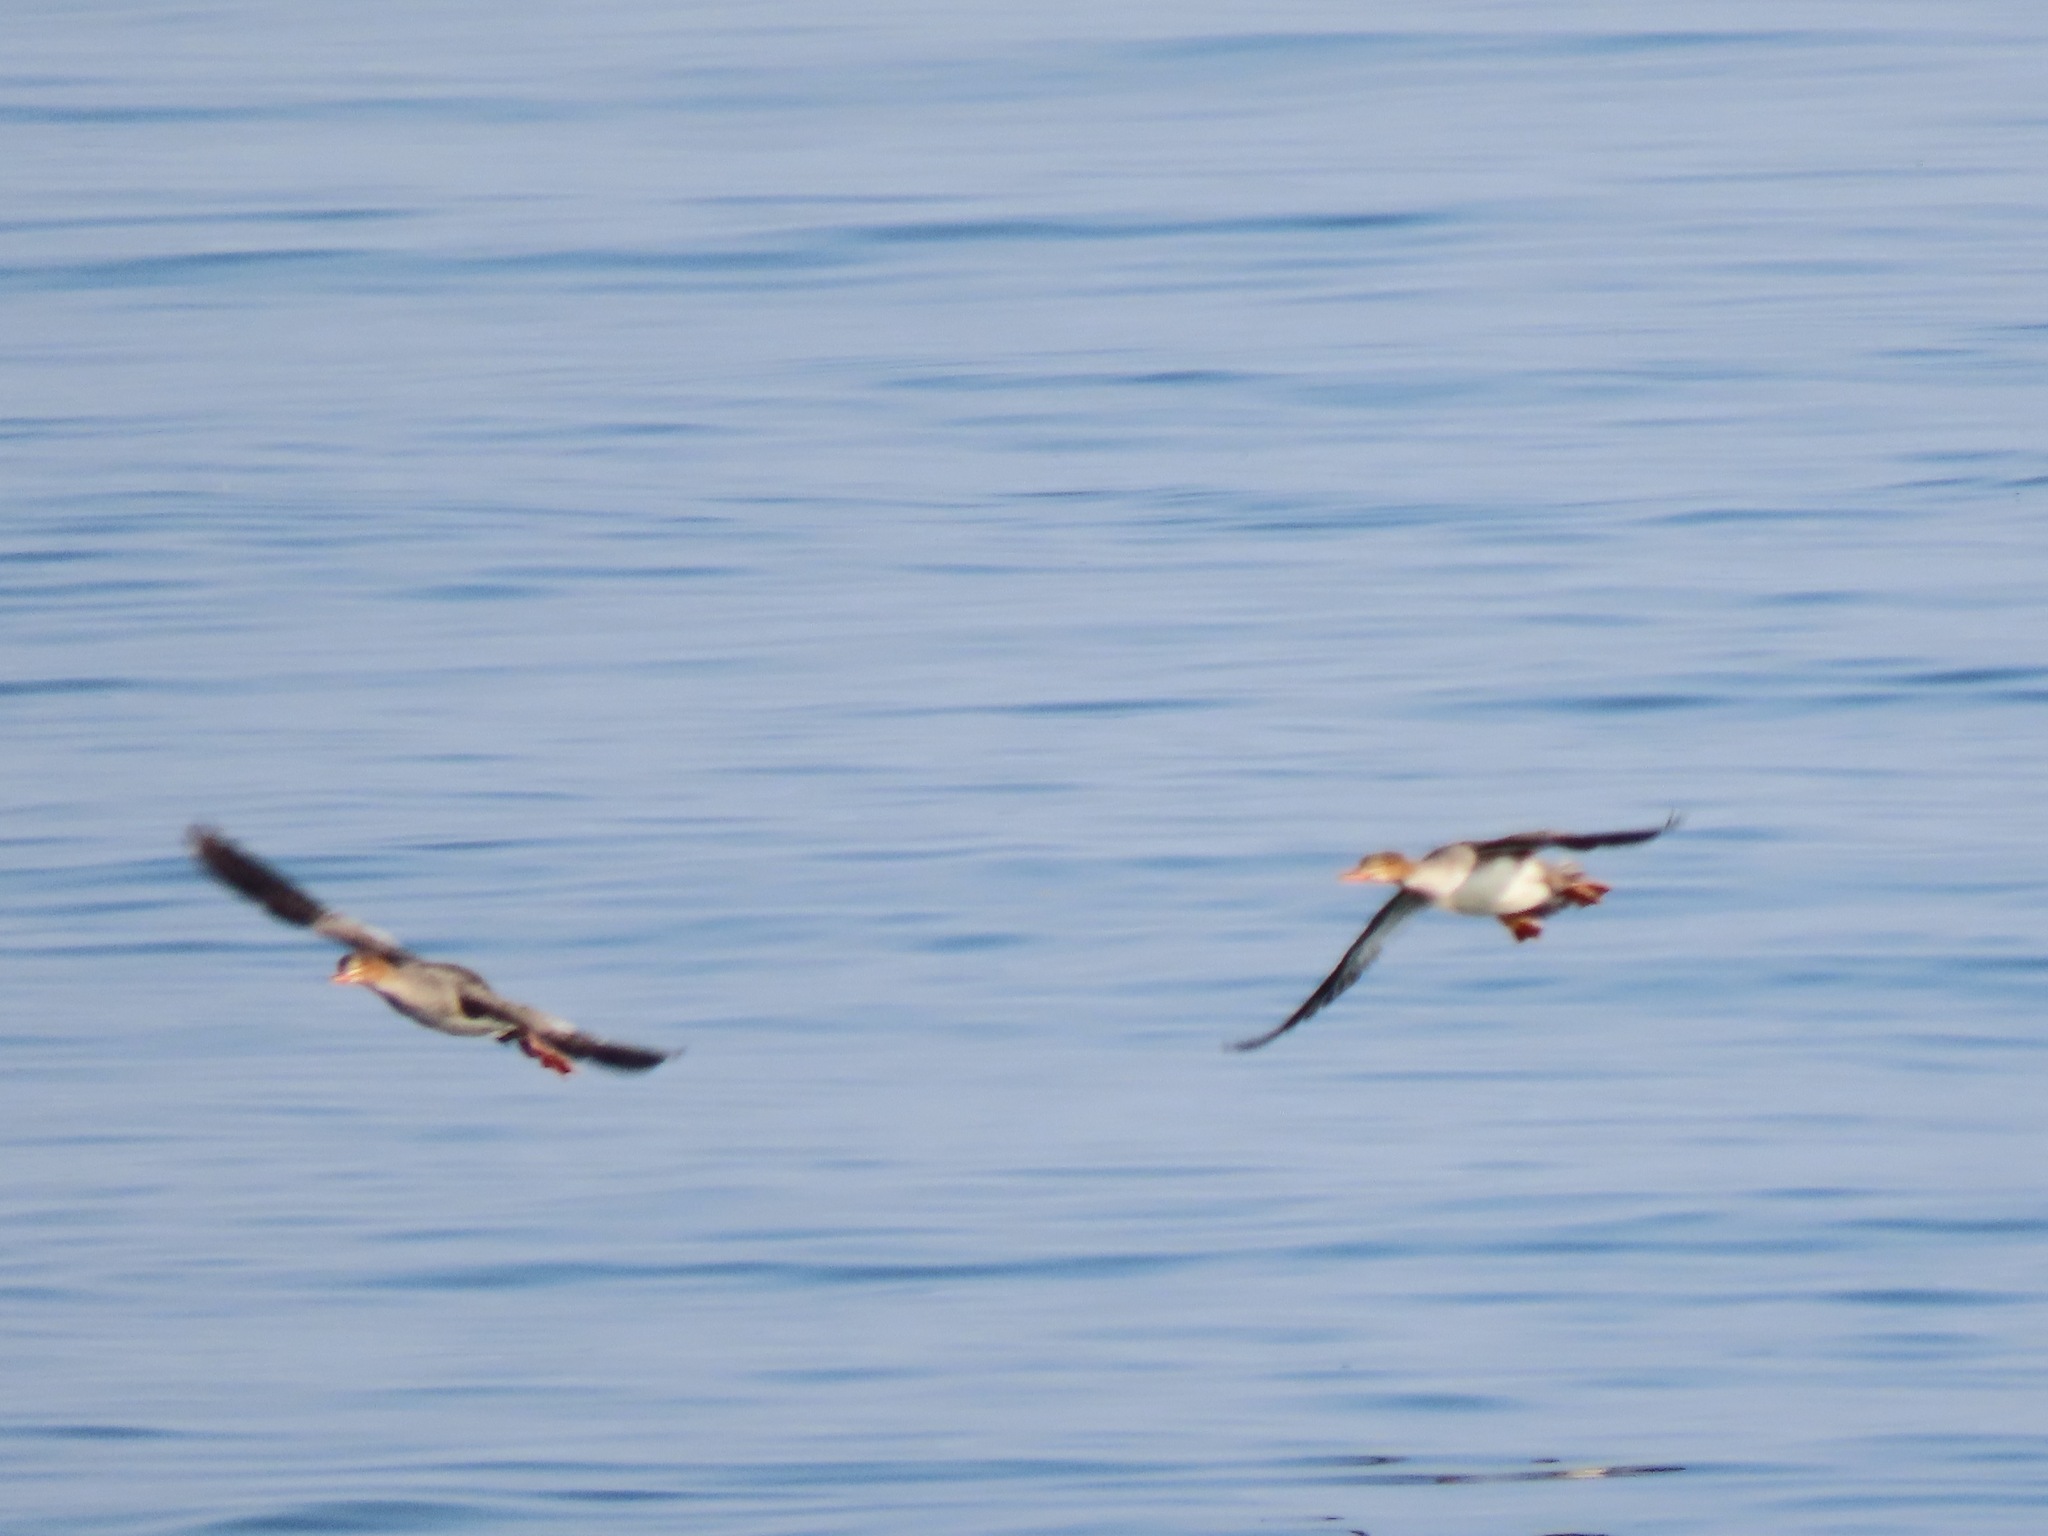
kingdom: Animalia
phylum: Chordata
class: Aves
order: Anseriformes
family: Anatidae
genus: Mergus
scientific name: Mergus serrator
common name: Red-breasted merganser
